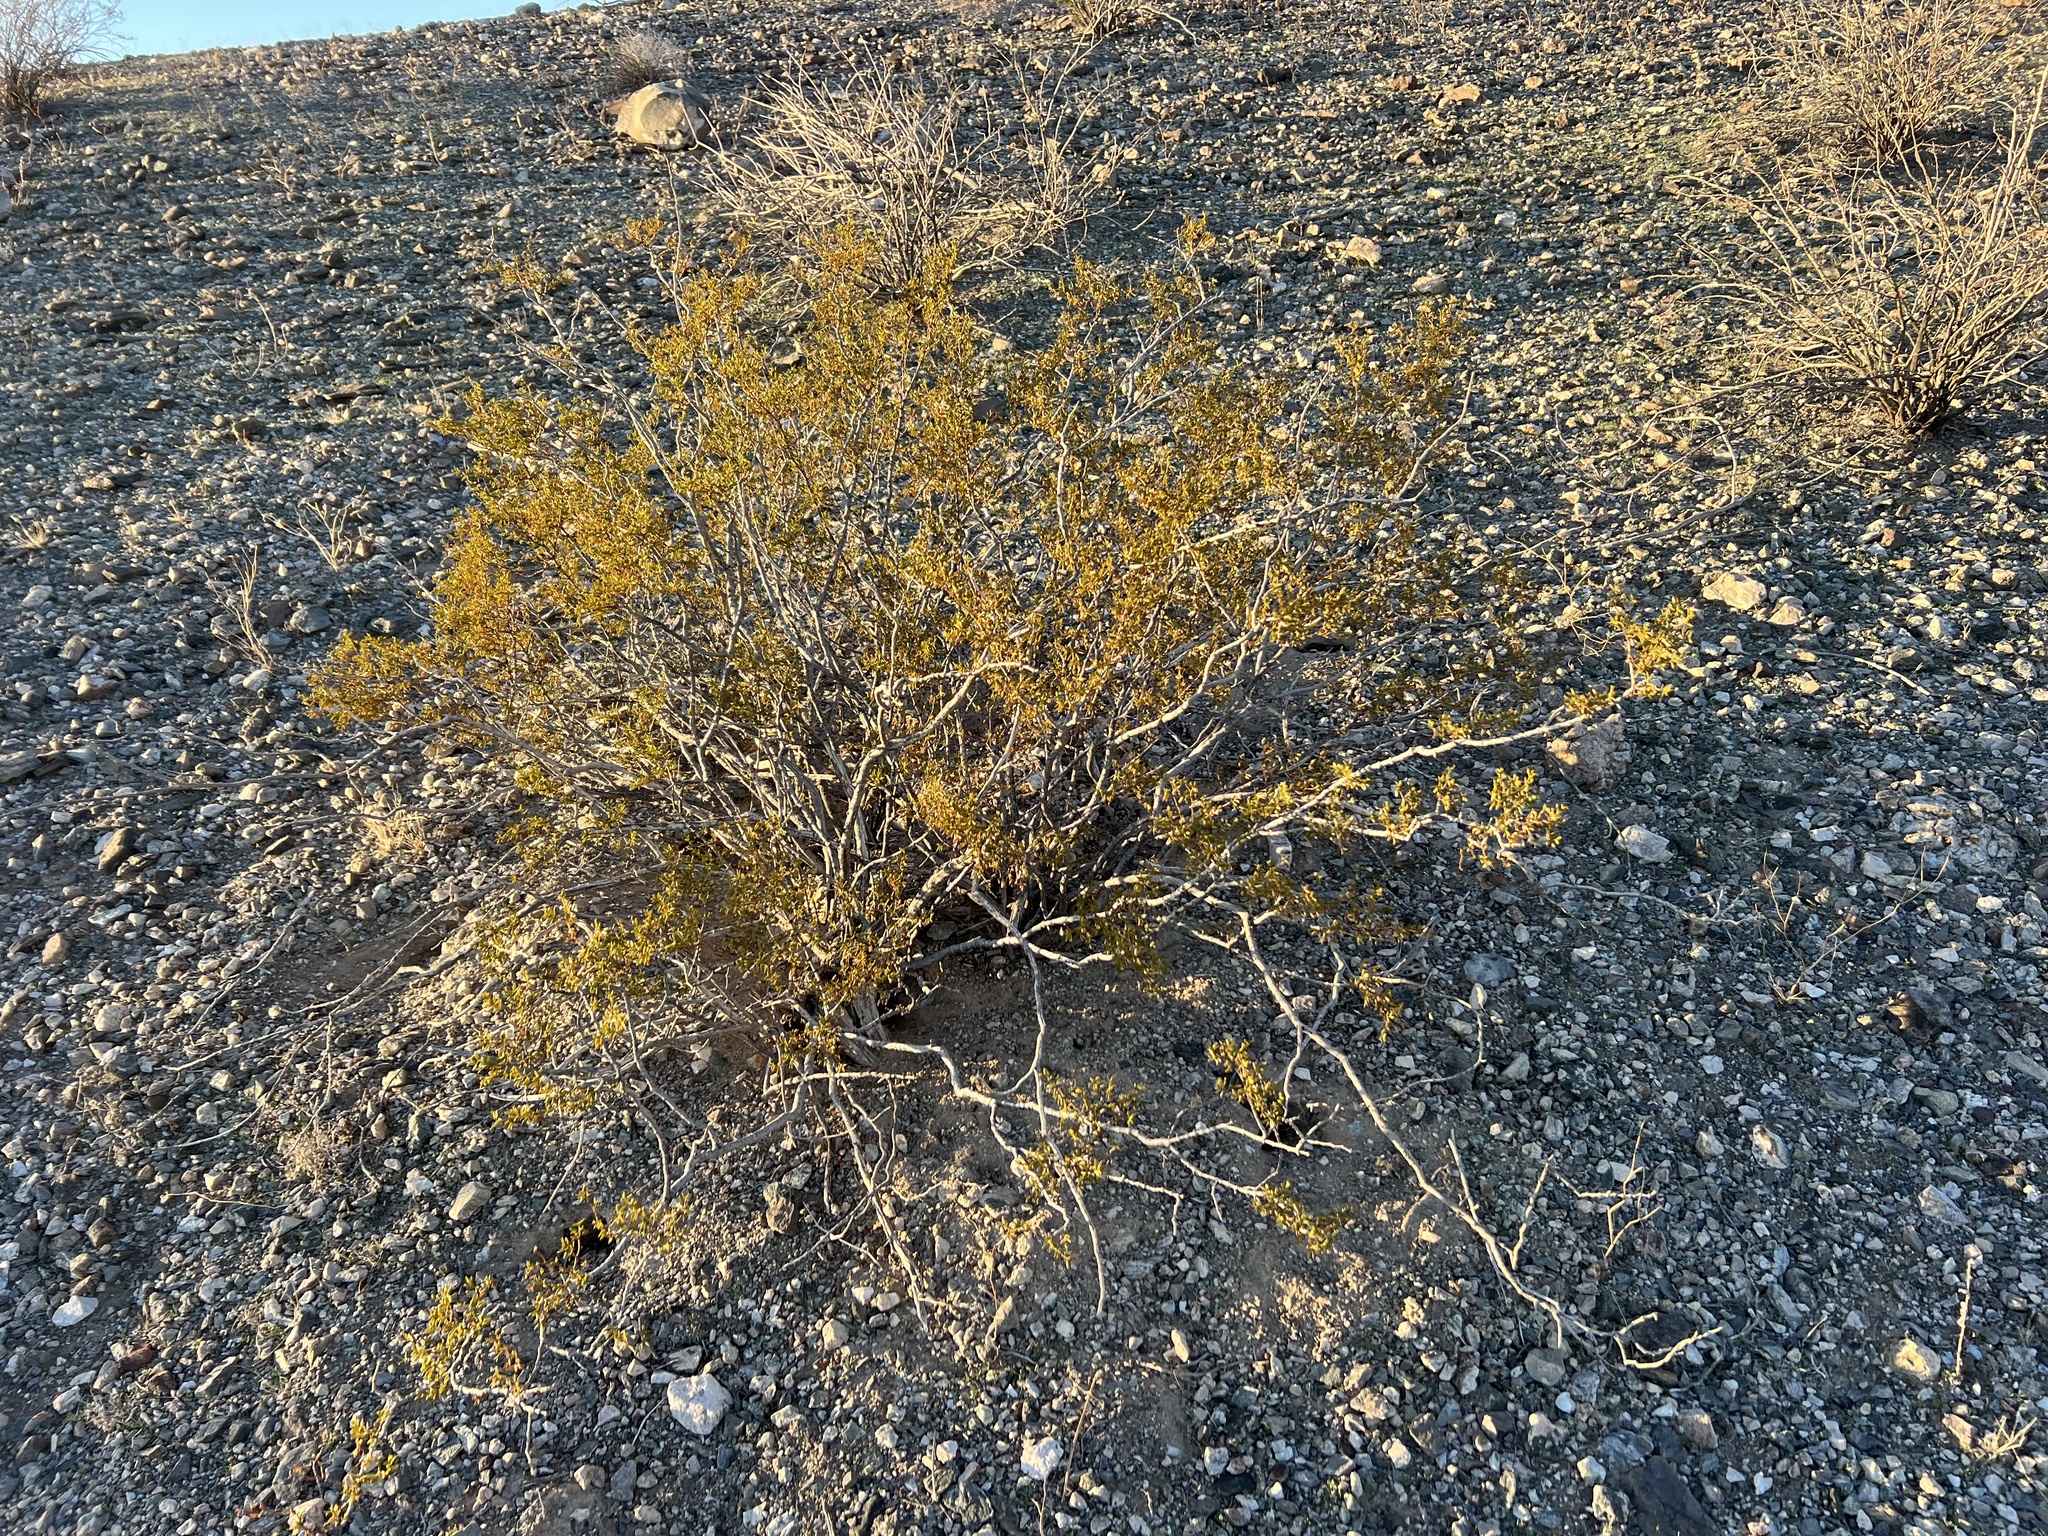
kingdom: Plantae
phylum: Tracheophyta
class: Magnoliopsida
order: Zygophyllales
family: Zygophyllaceae
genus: Larrea
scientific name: Larrea tridentata
